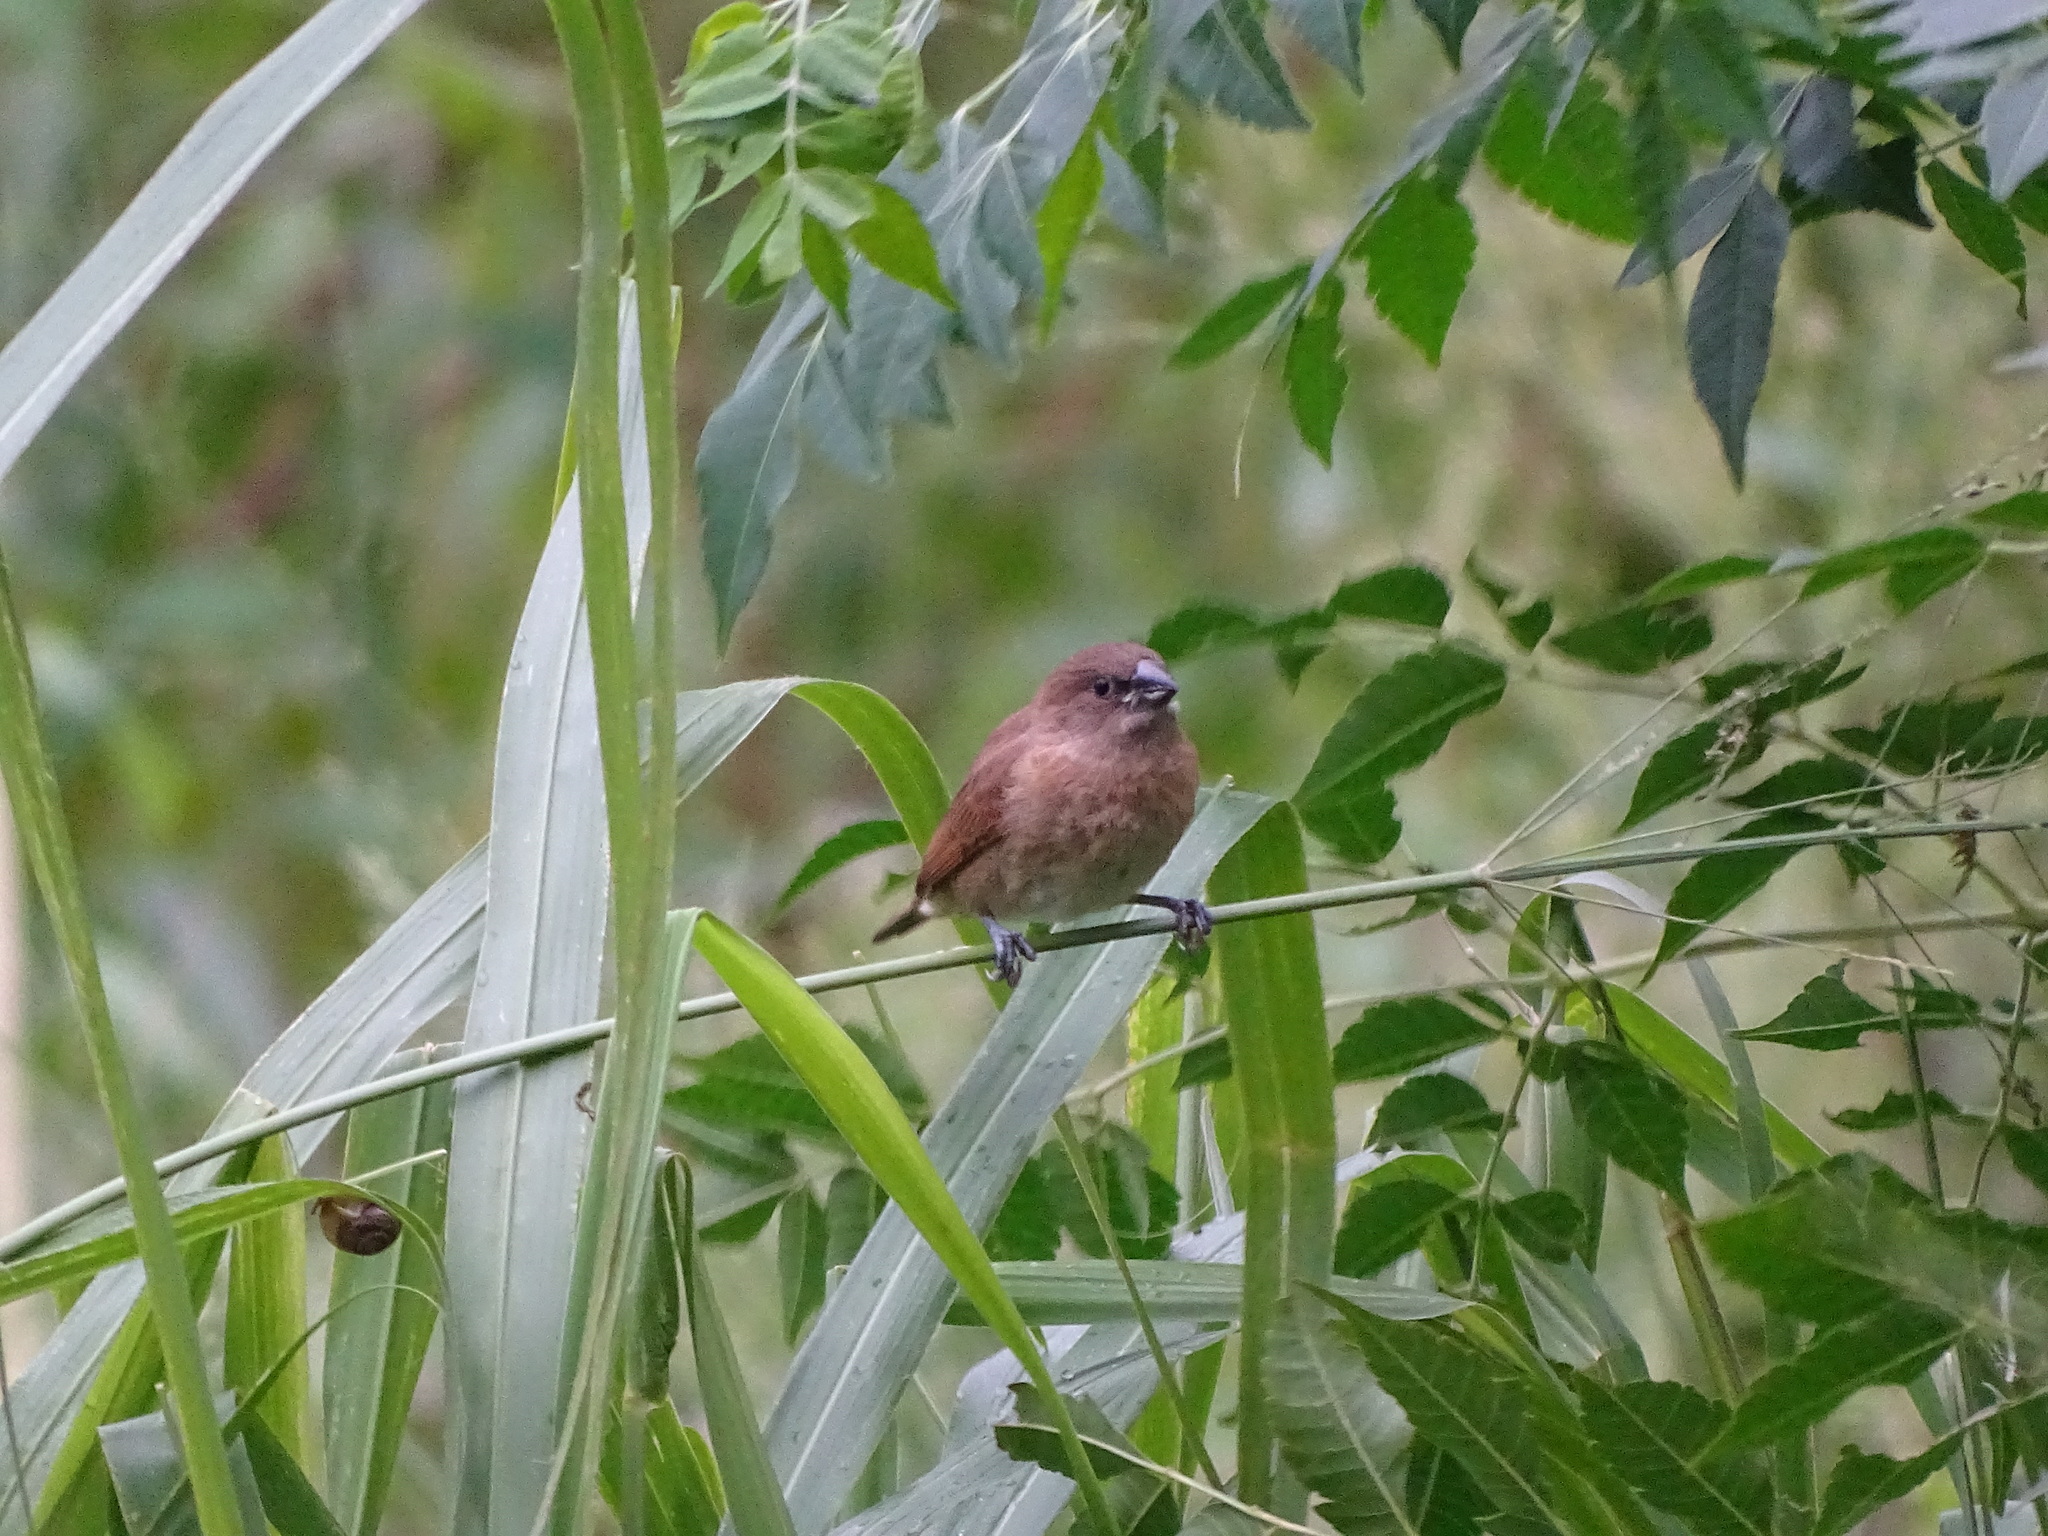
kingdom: Animalia
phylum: Chordata
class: Aves
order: Passeriformes
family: Estrildidae
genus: Lonchura
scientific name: Lonchura punctulata
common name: Scaly-breasted munia
